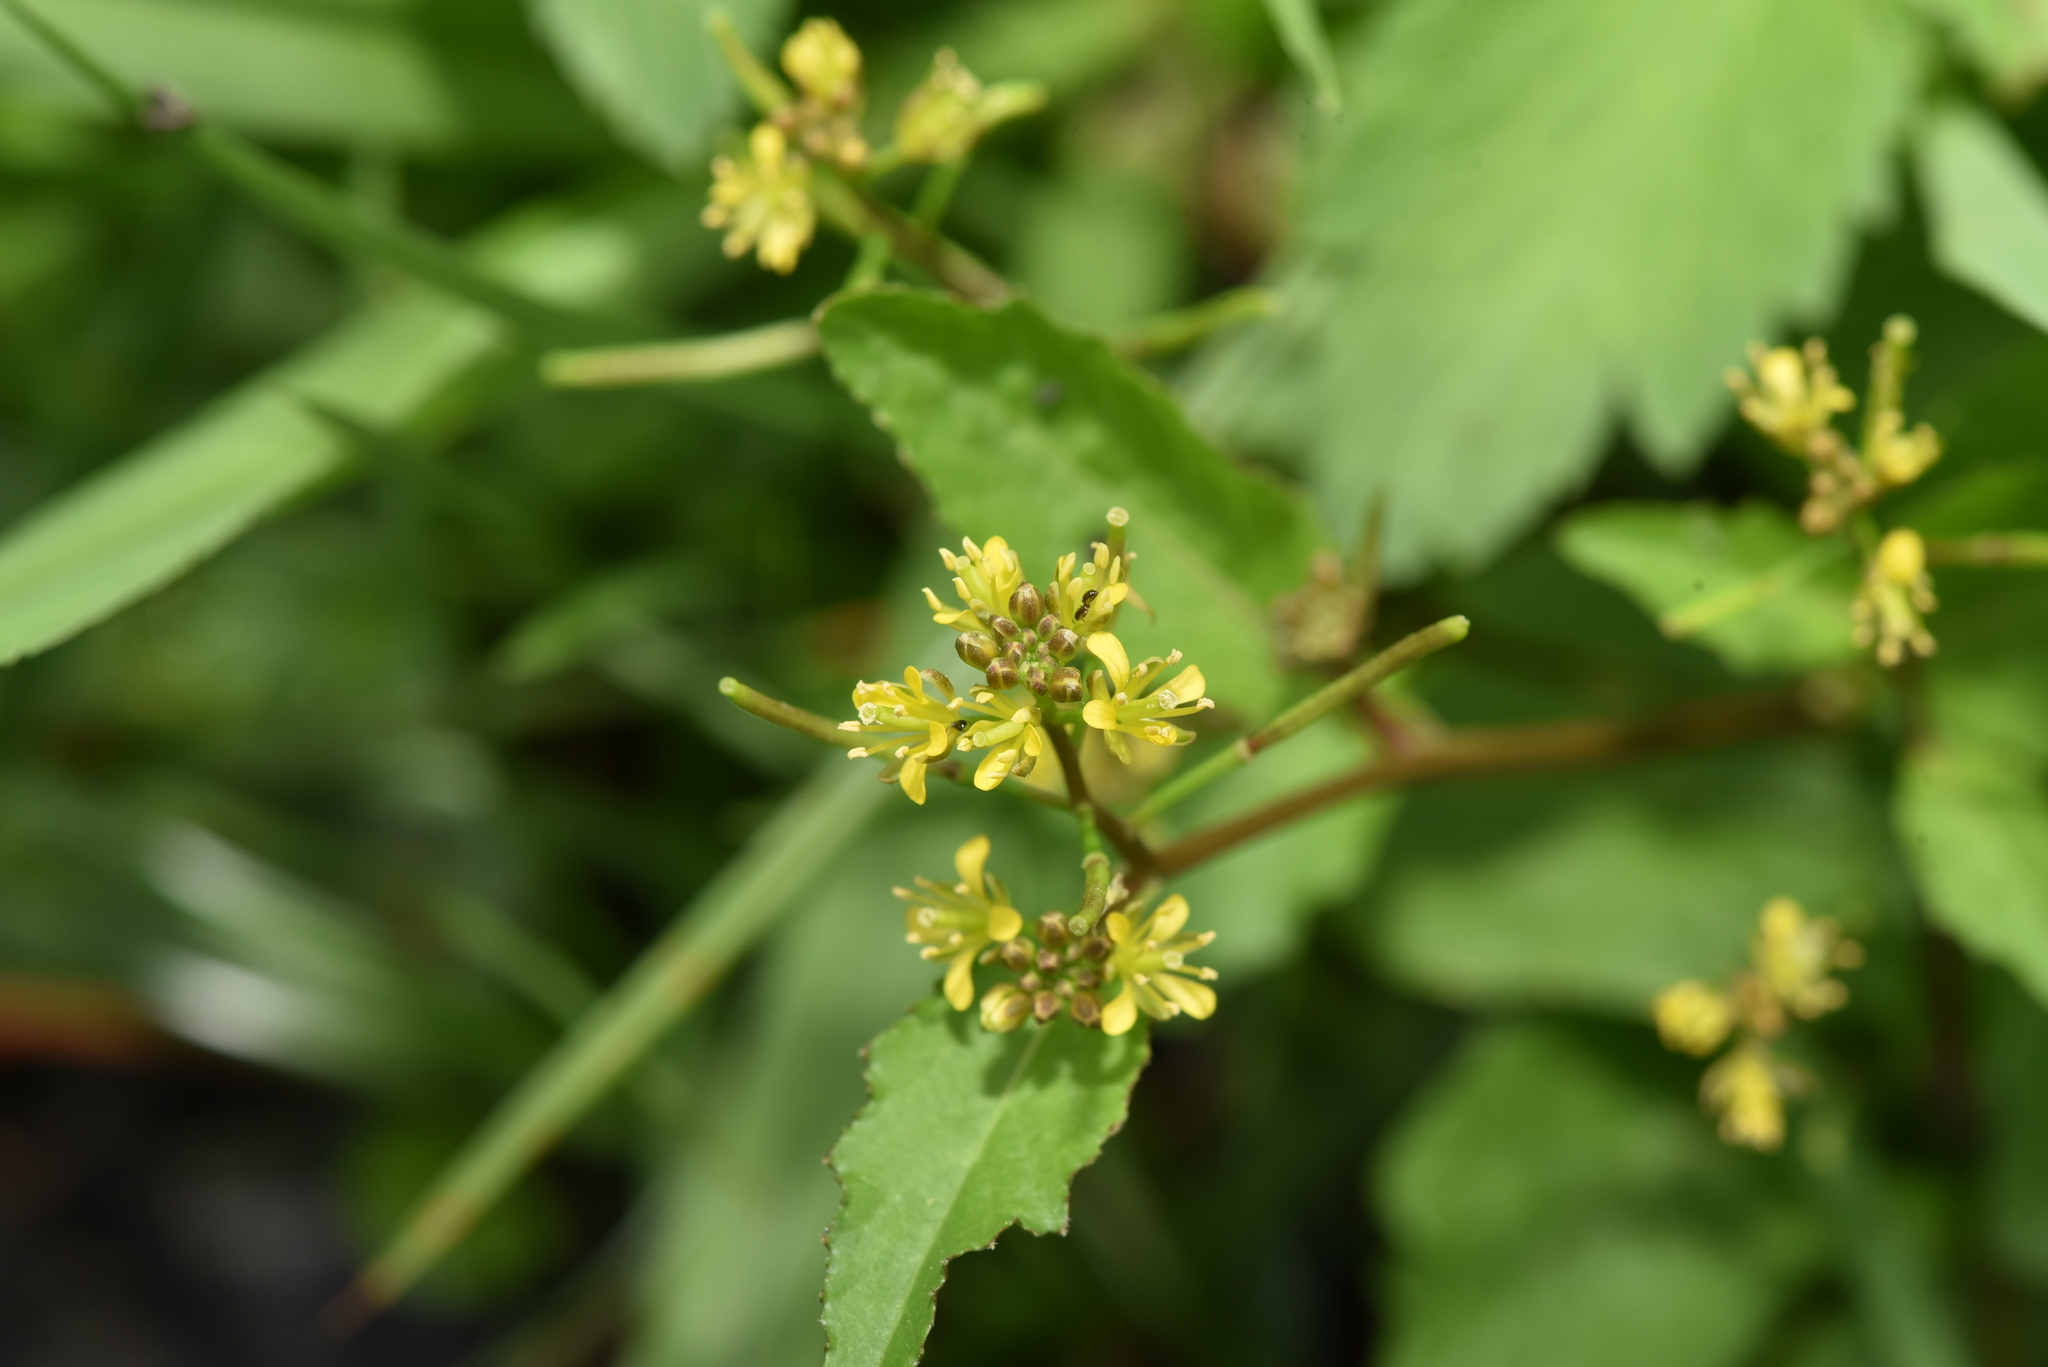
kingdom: Plantae
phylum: Tracheophyta
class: Magnoliopsida
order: Brassicales
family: Brassicaceae
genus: Rorippa
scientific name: Rorippa indica
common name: Variableleaf yellowcress
